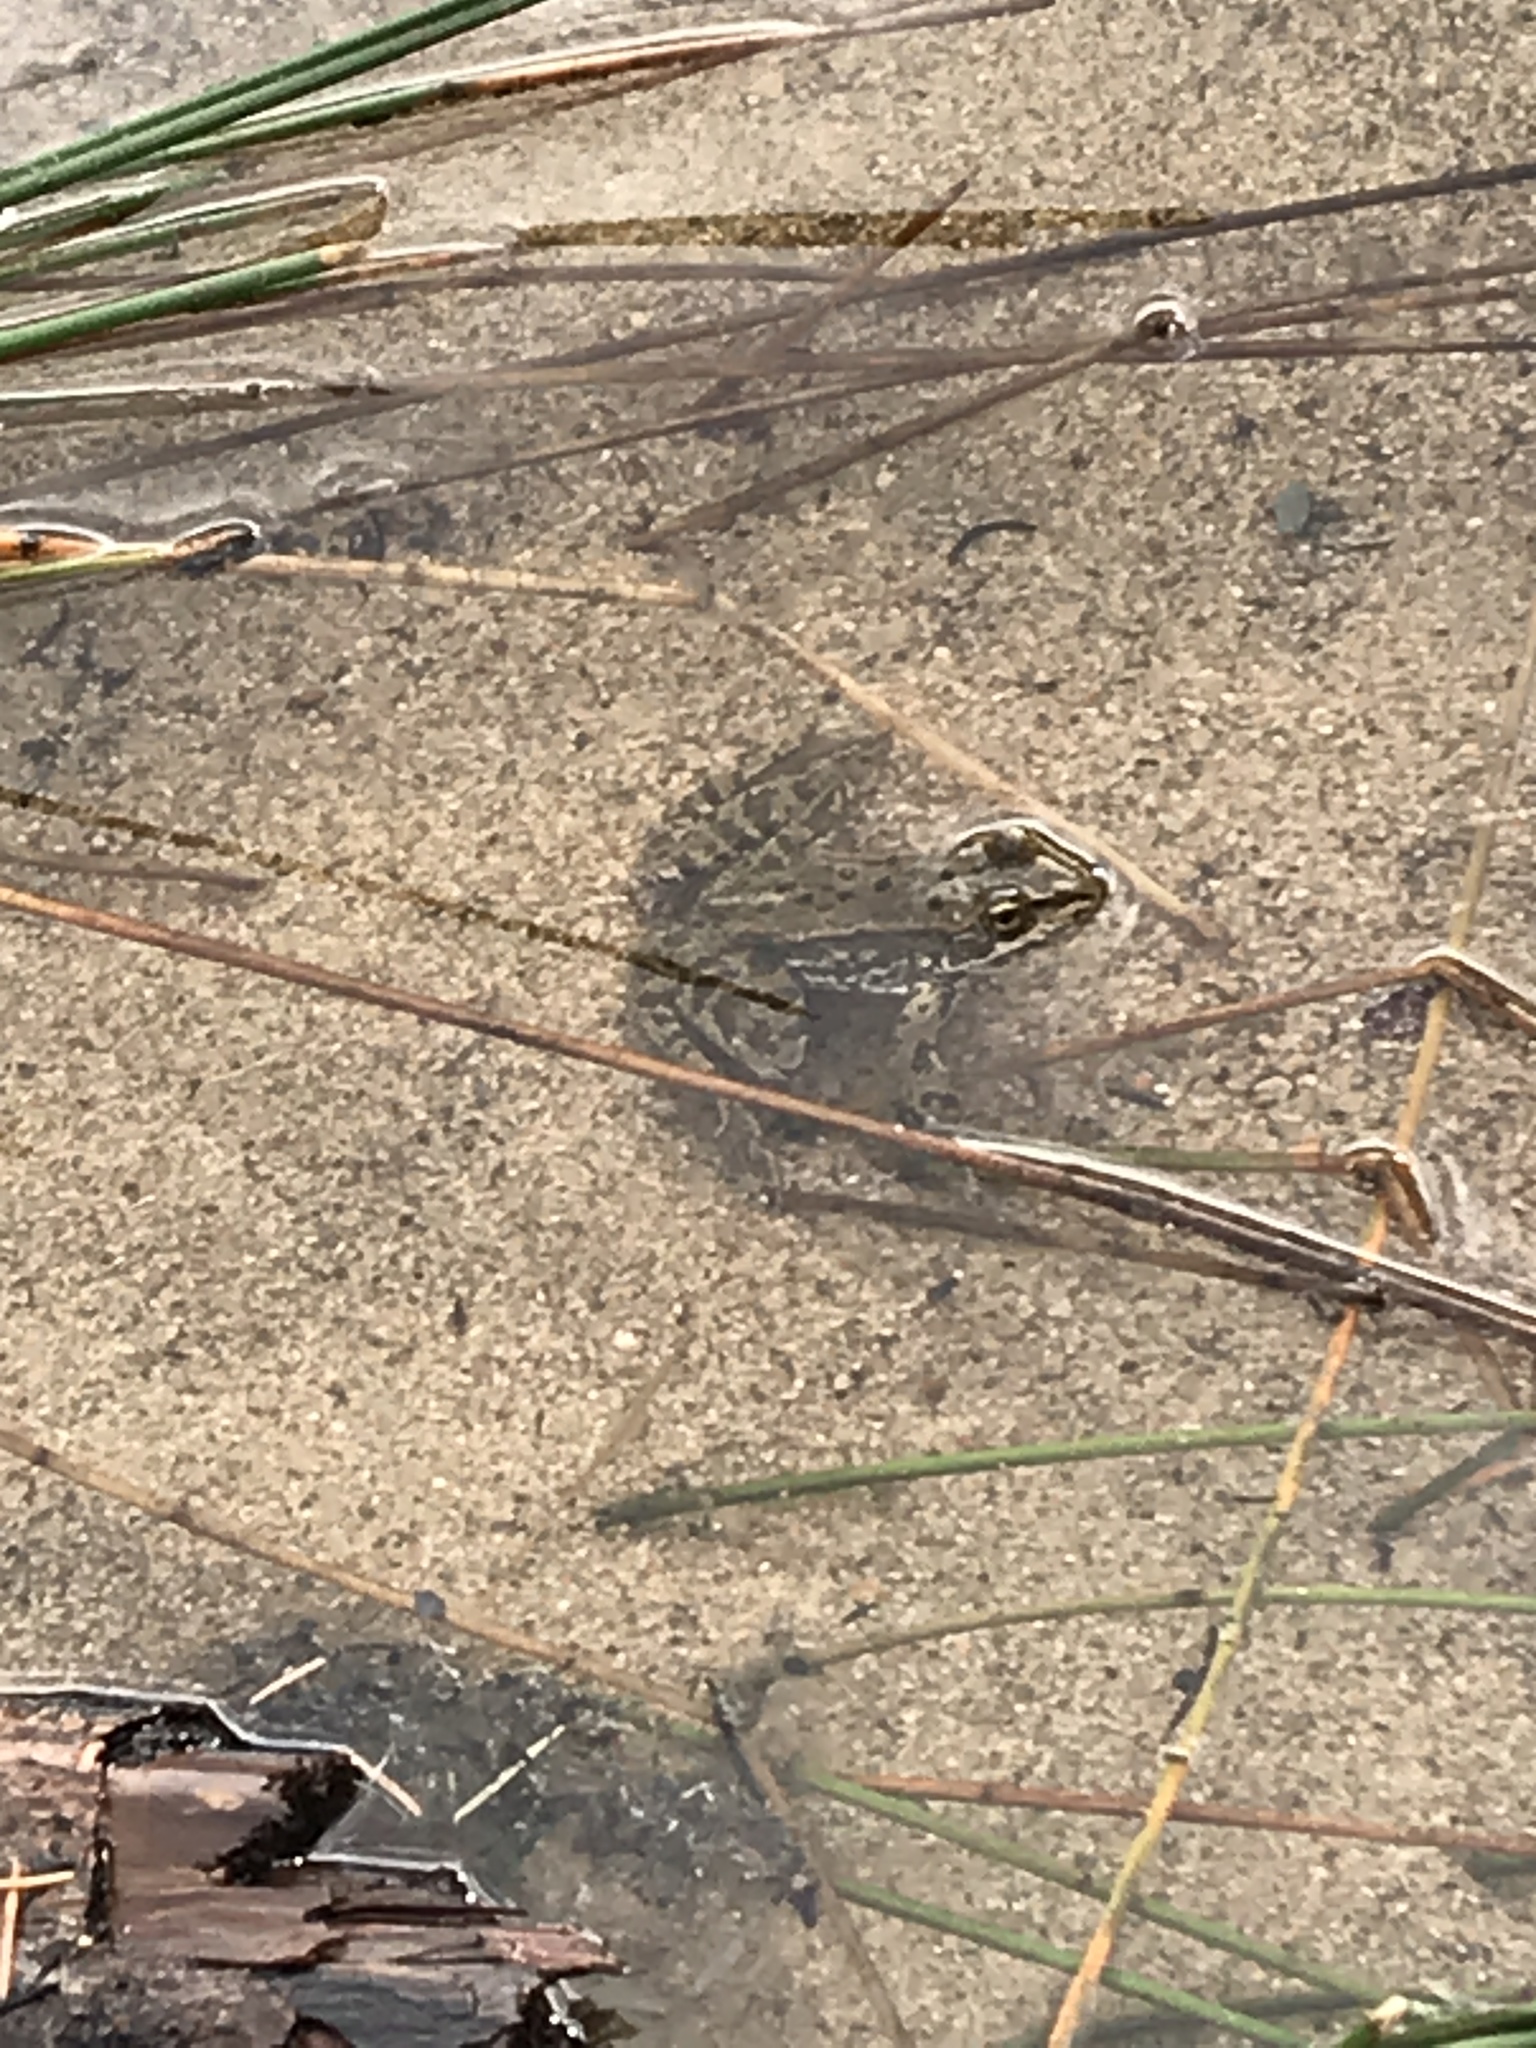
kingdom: Animalia
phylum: Chordata
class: Amphibia
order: Anura
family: Ranidae
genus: Rana
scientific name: Rana luteiventris
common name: Columbia spotted frog
